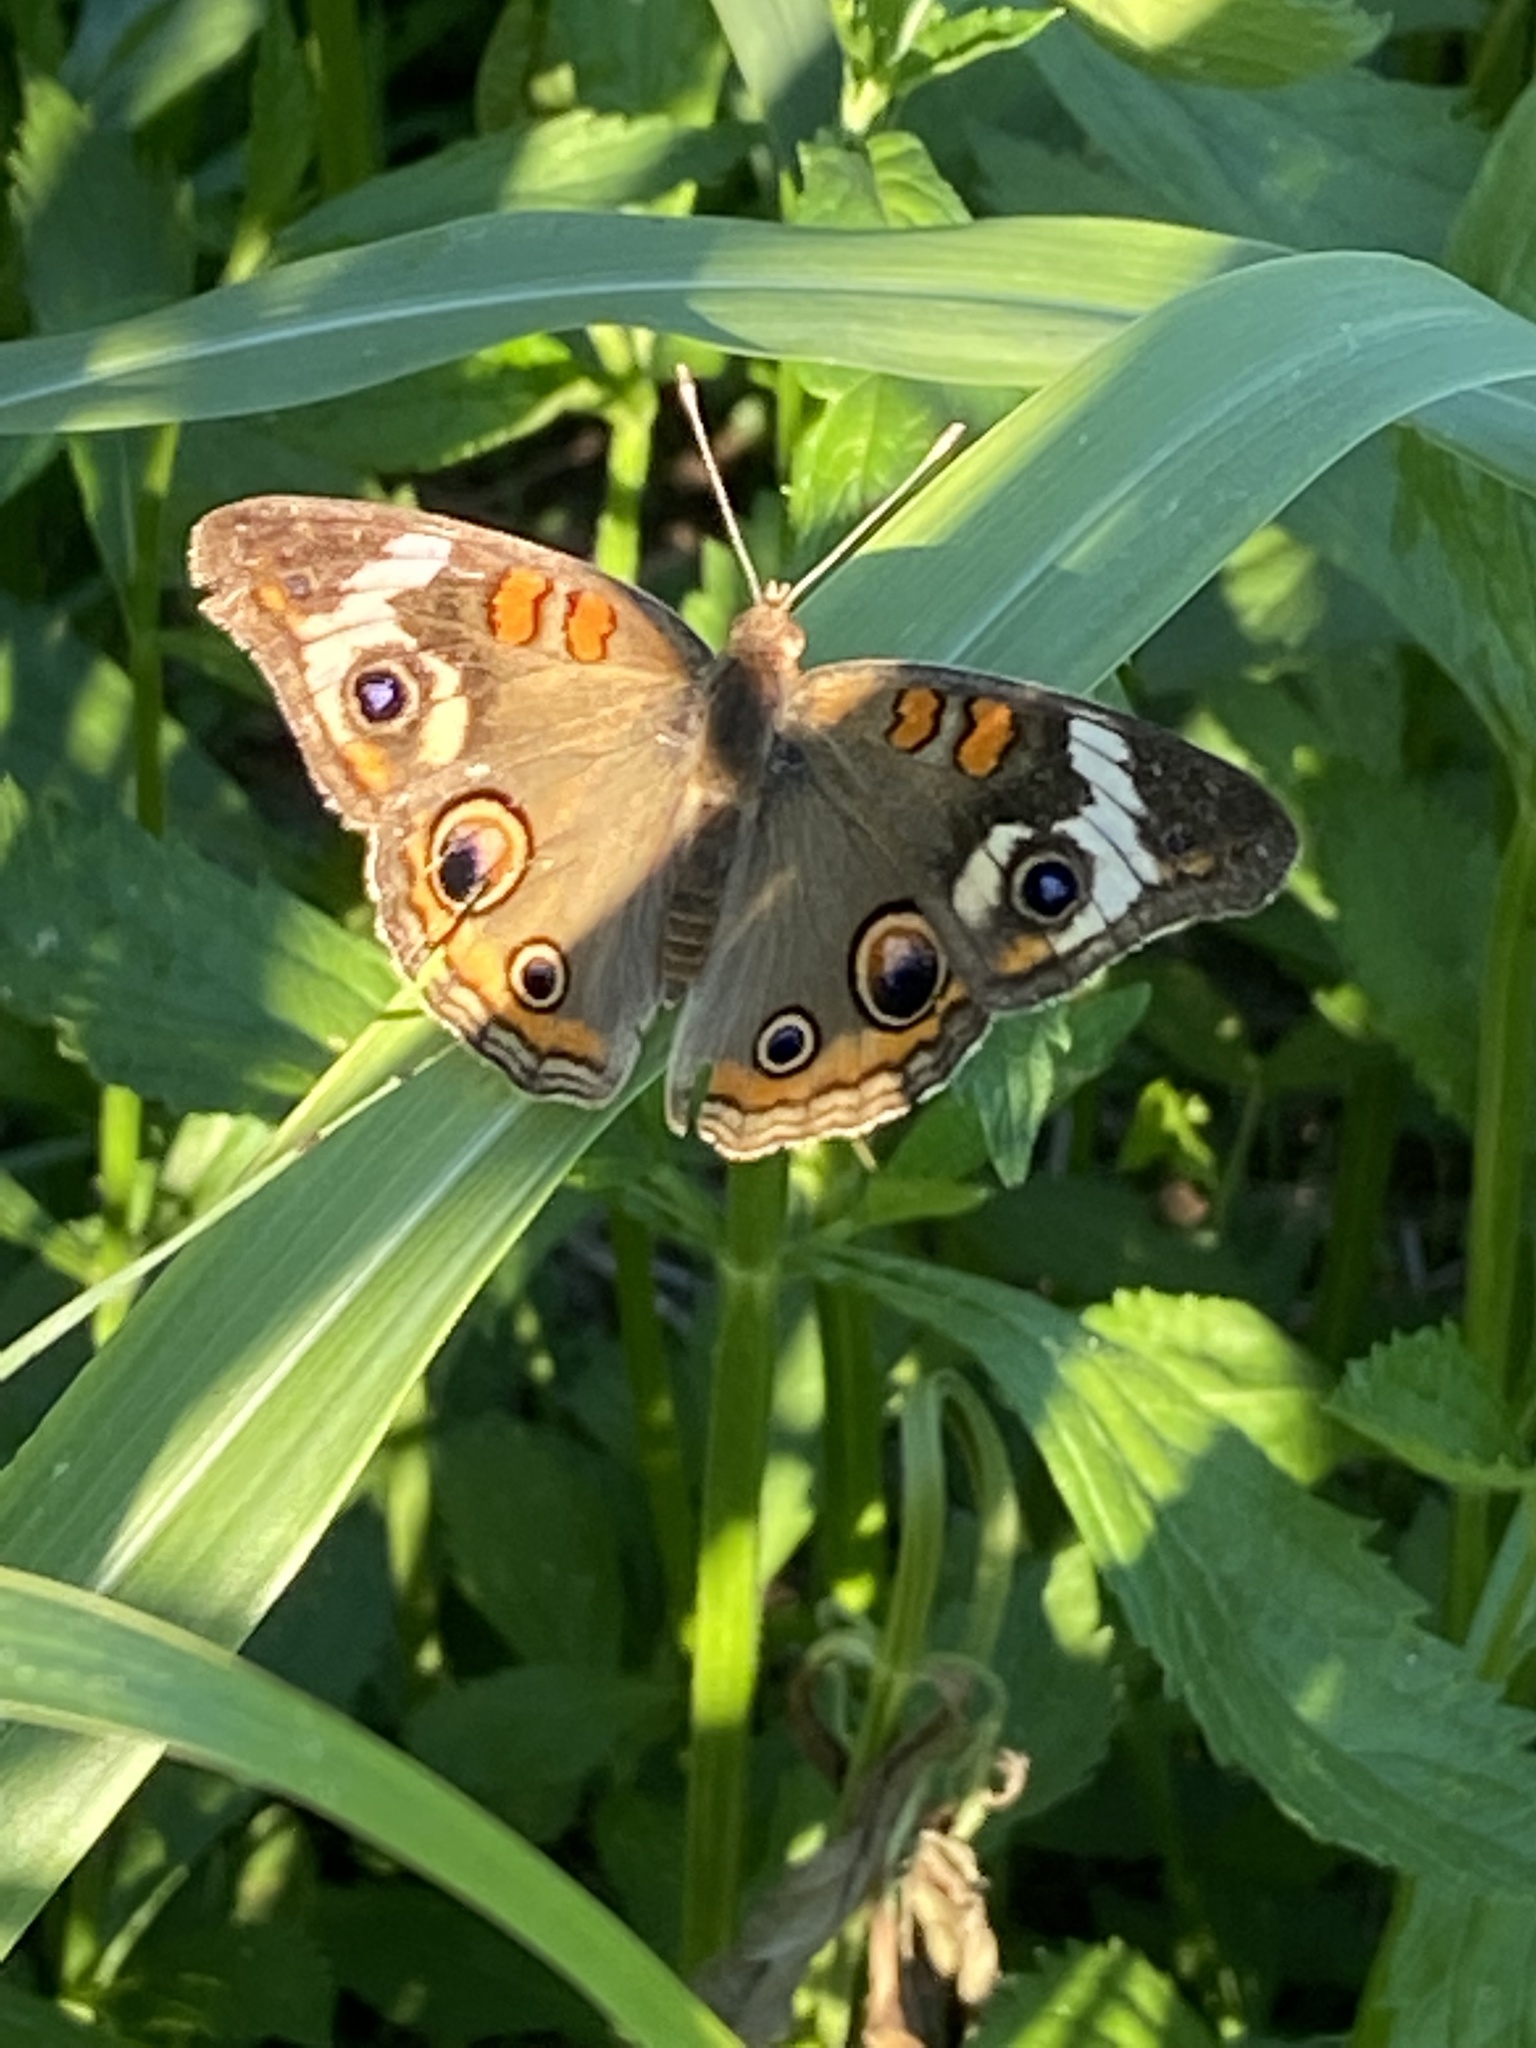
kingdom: Animalia
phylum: Arthropoda
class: Insecta
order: Lepidoptera
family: Nymphalidae
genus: Junonia
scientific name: Junonia coenia
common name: Common buckeye
